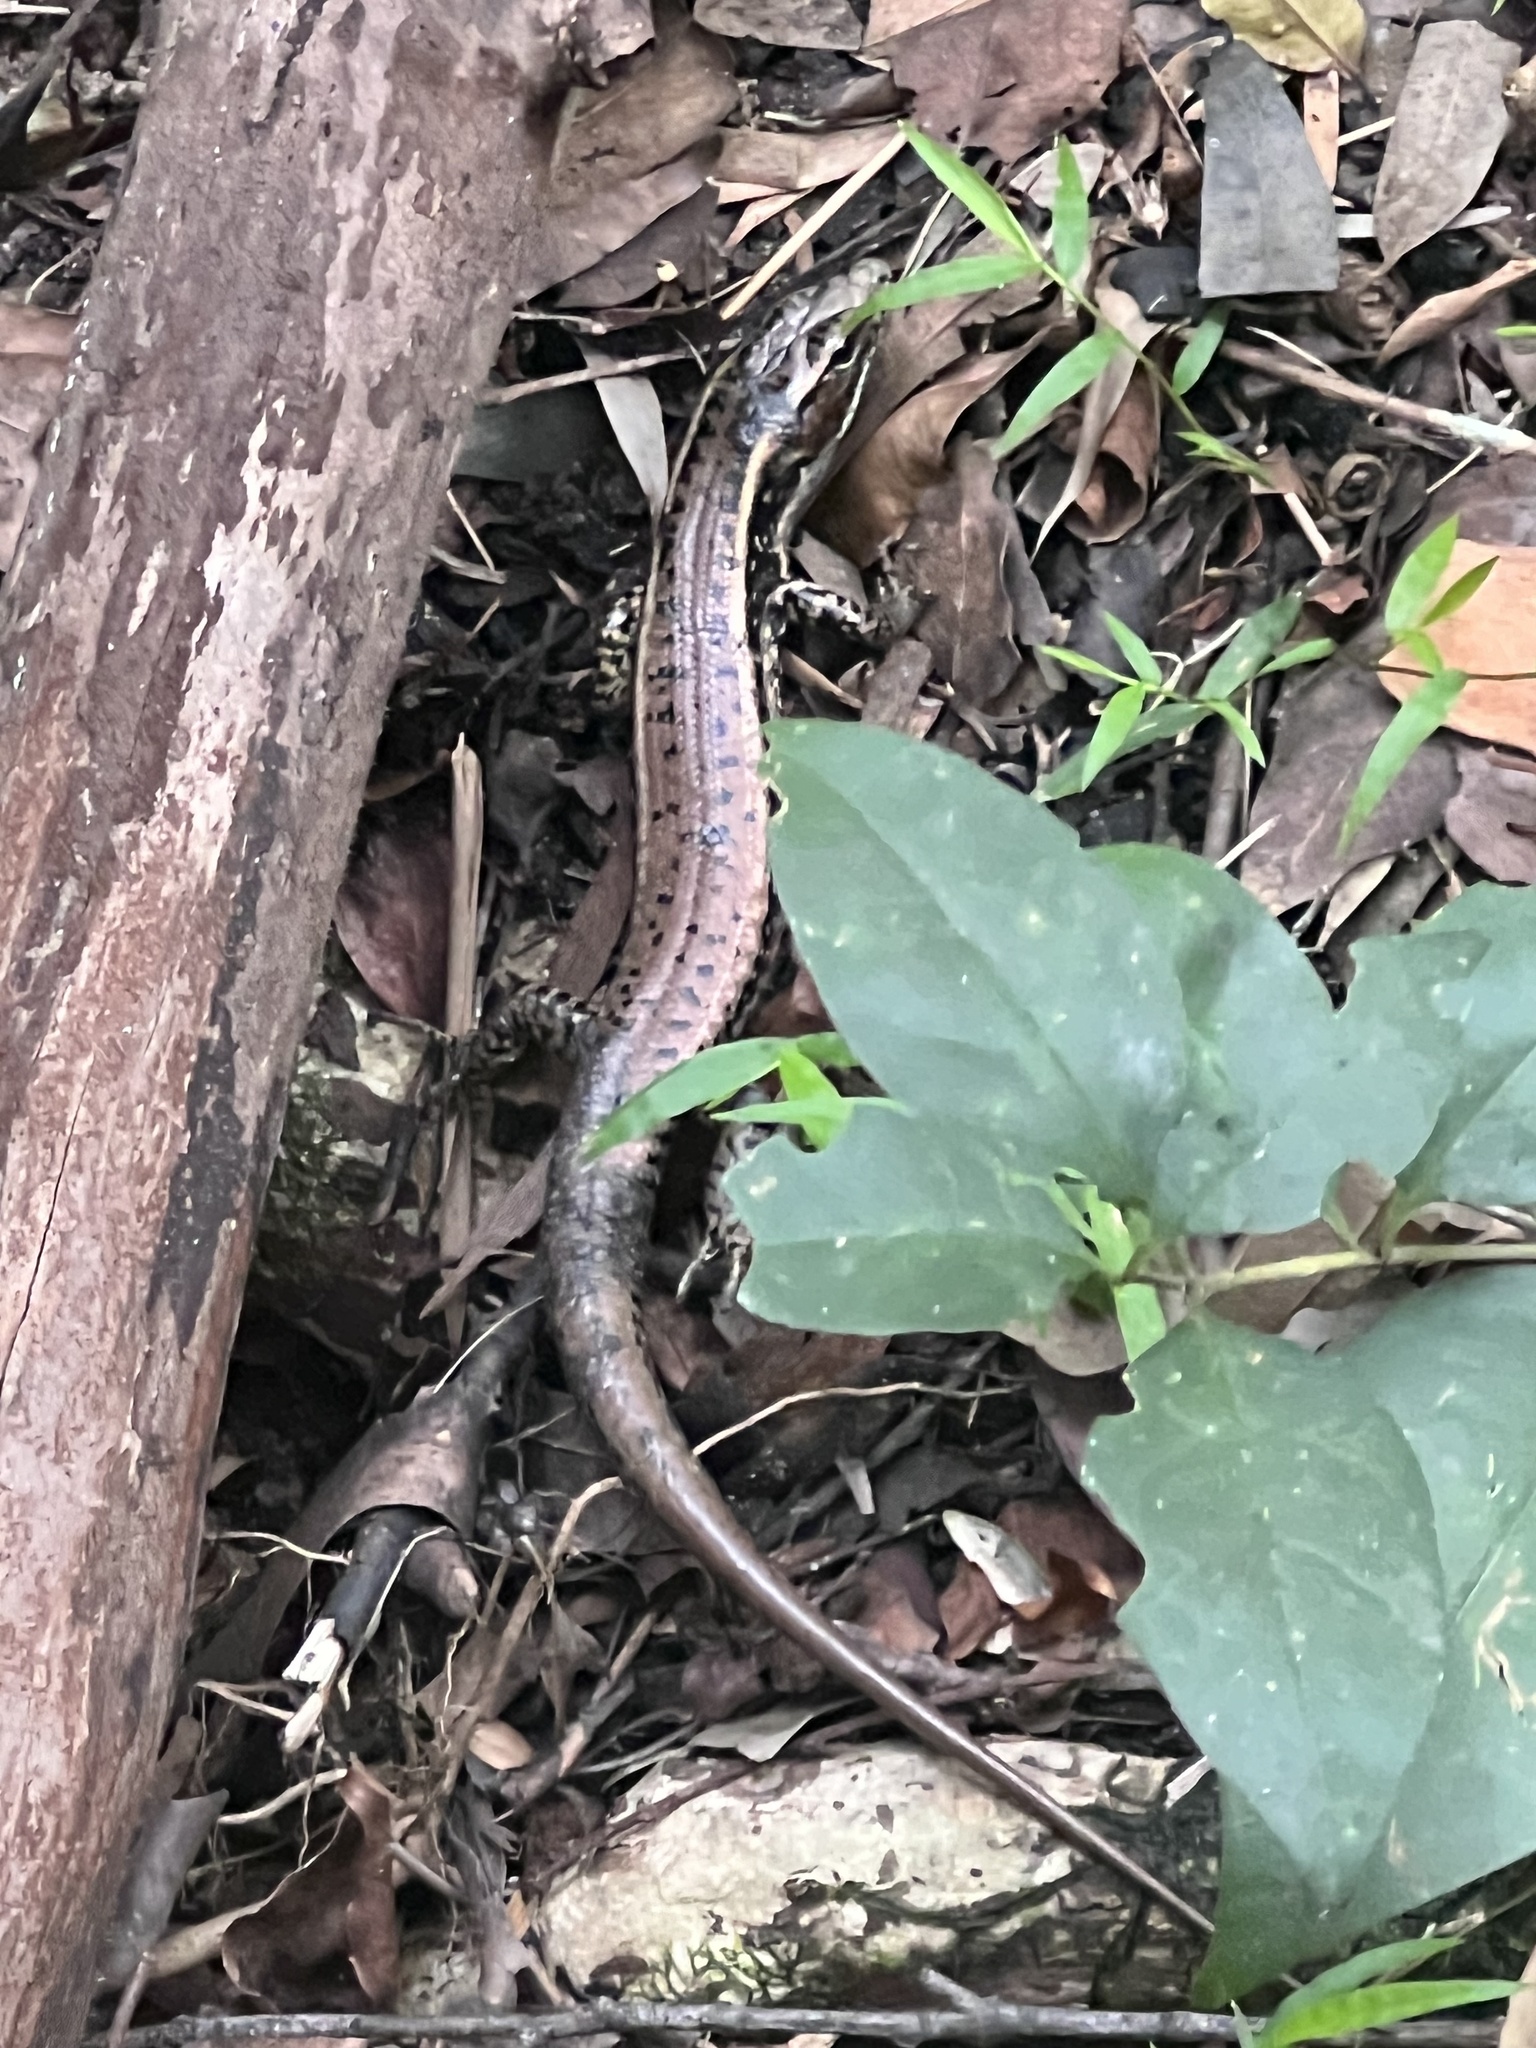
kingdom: Animalia
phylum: Chordata
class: Squamata
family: Scincidae
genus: Eulamprus
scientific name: Eulamprus quoyii
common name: Eastern water skink
